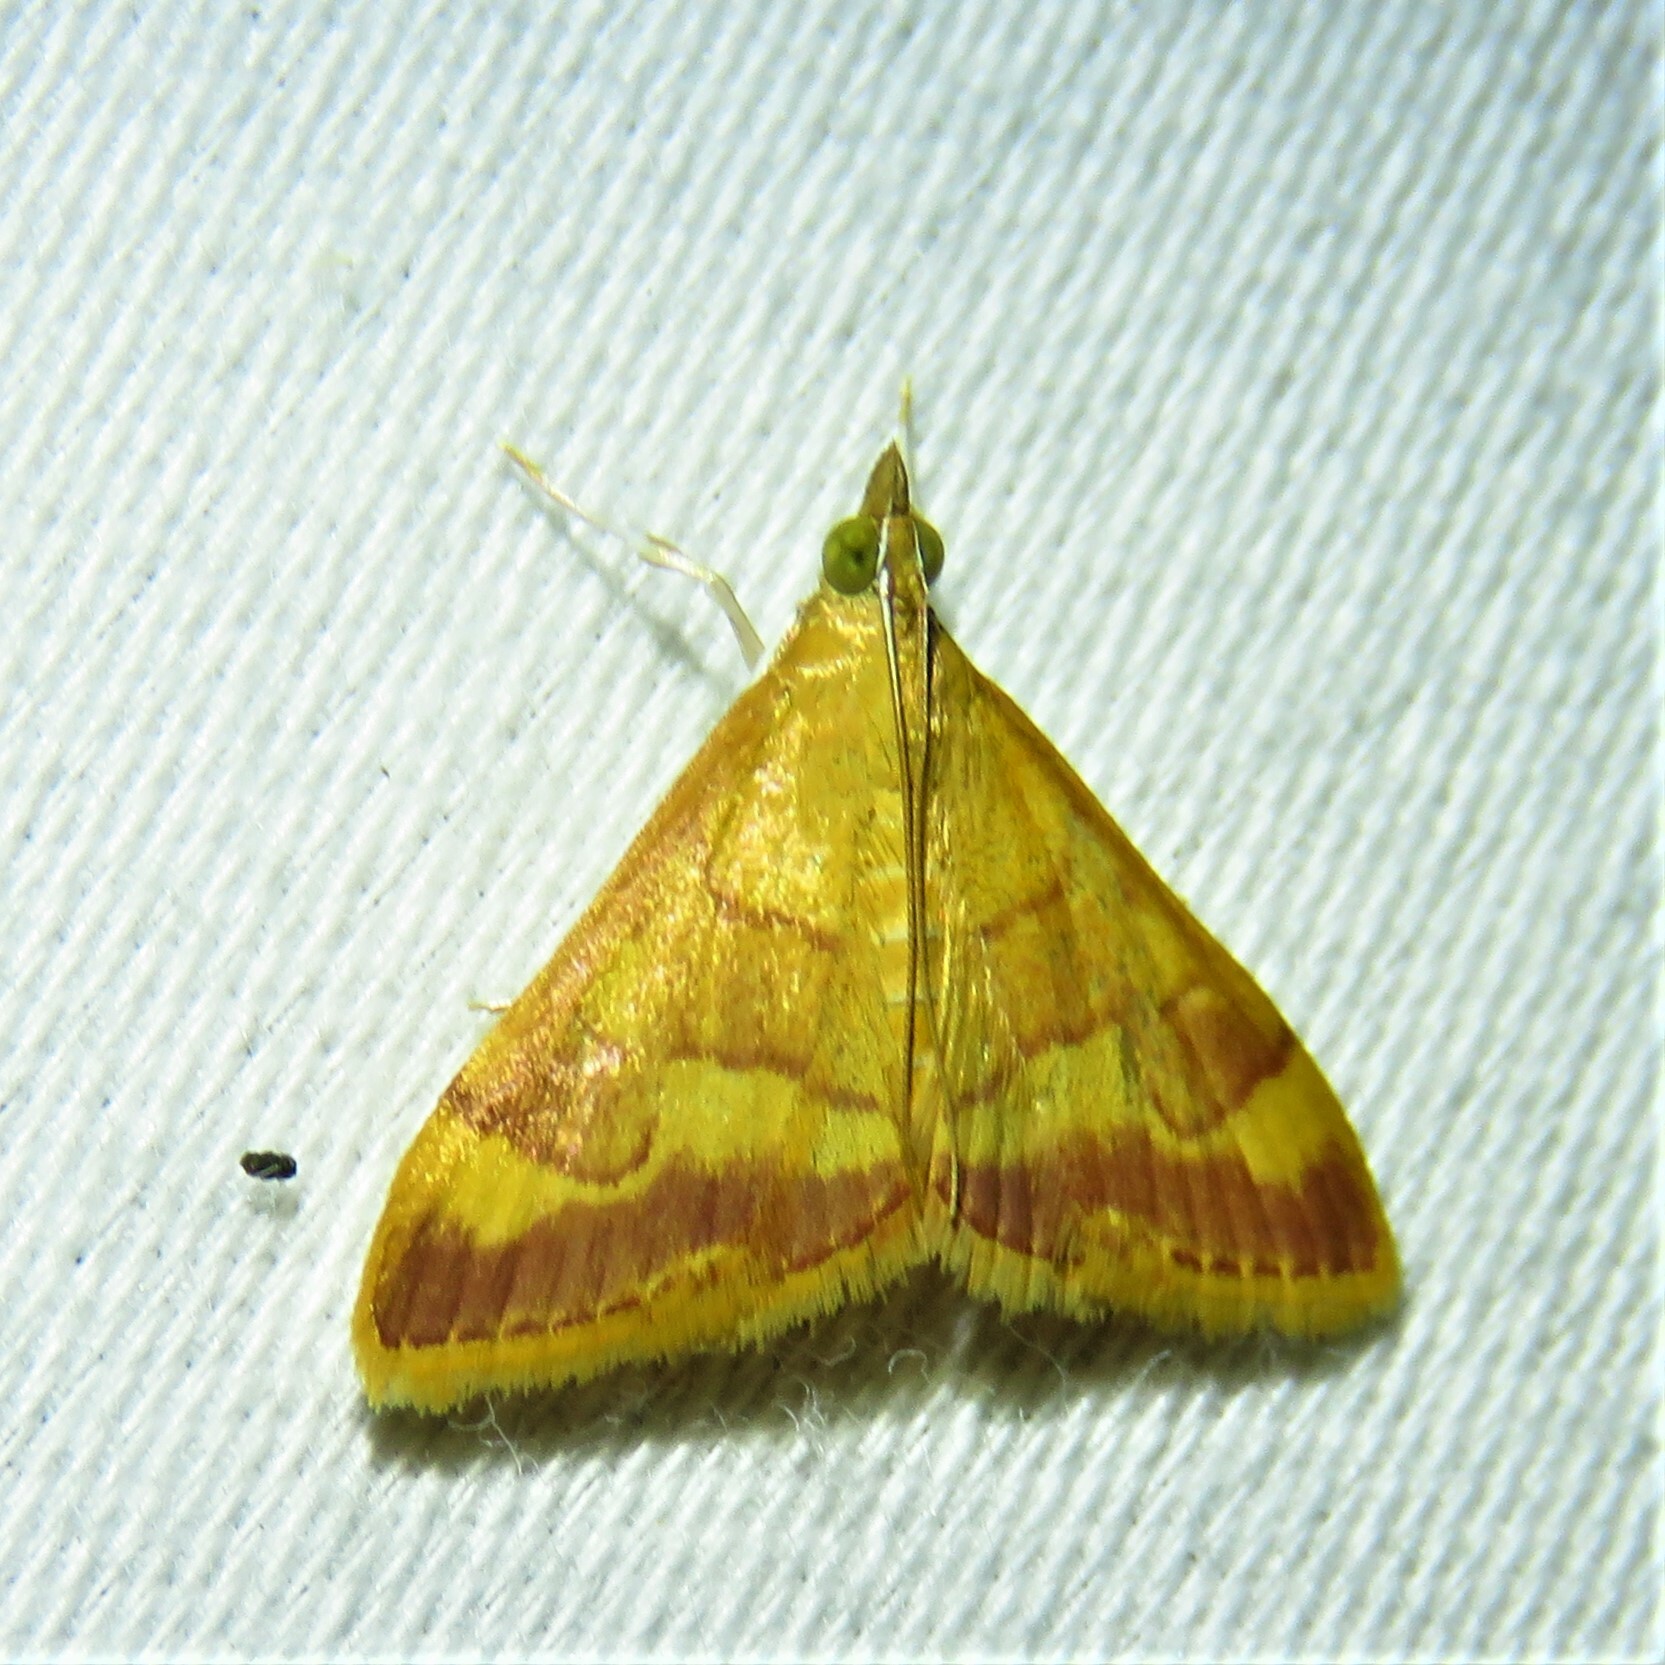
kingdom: Animalia
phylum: Arthropoda
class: Insecta
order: Lepidoptera
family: Crambidae
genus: Pyrausta
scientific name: Pyrausta pseudonythesalis
